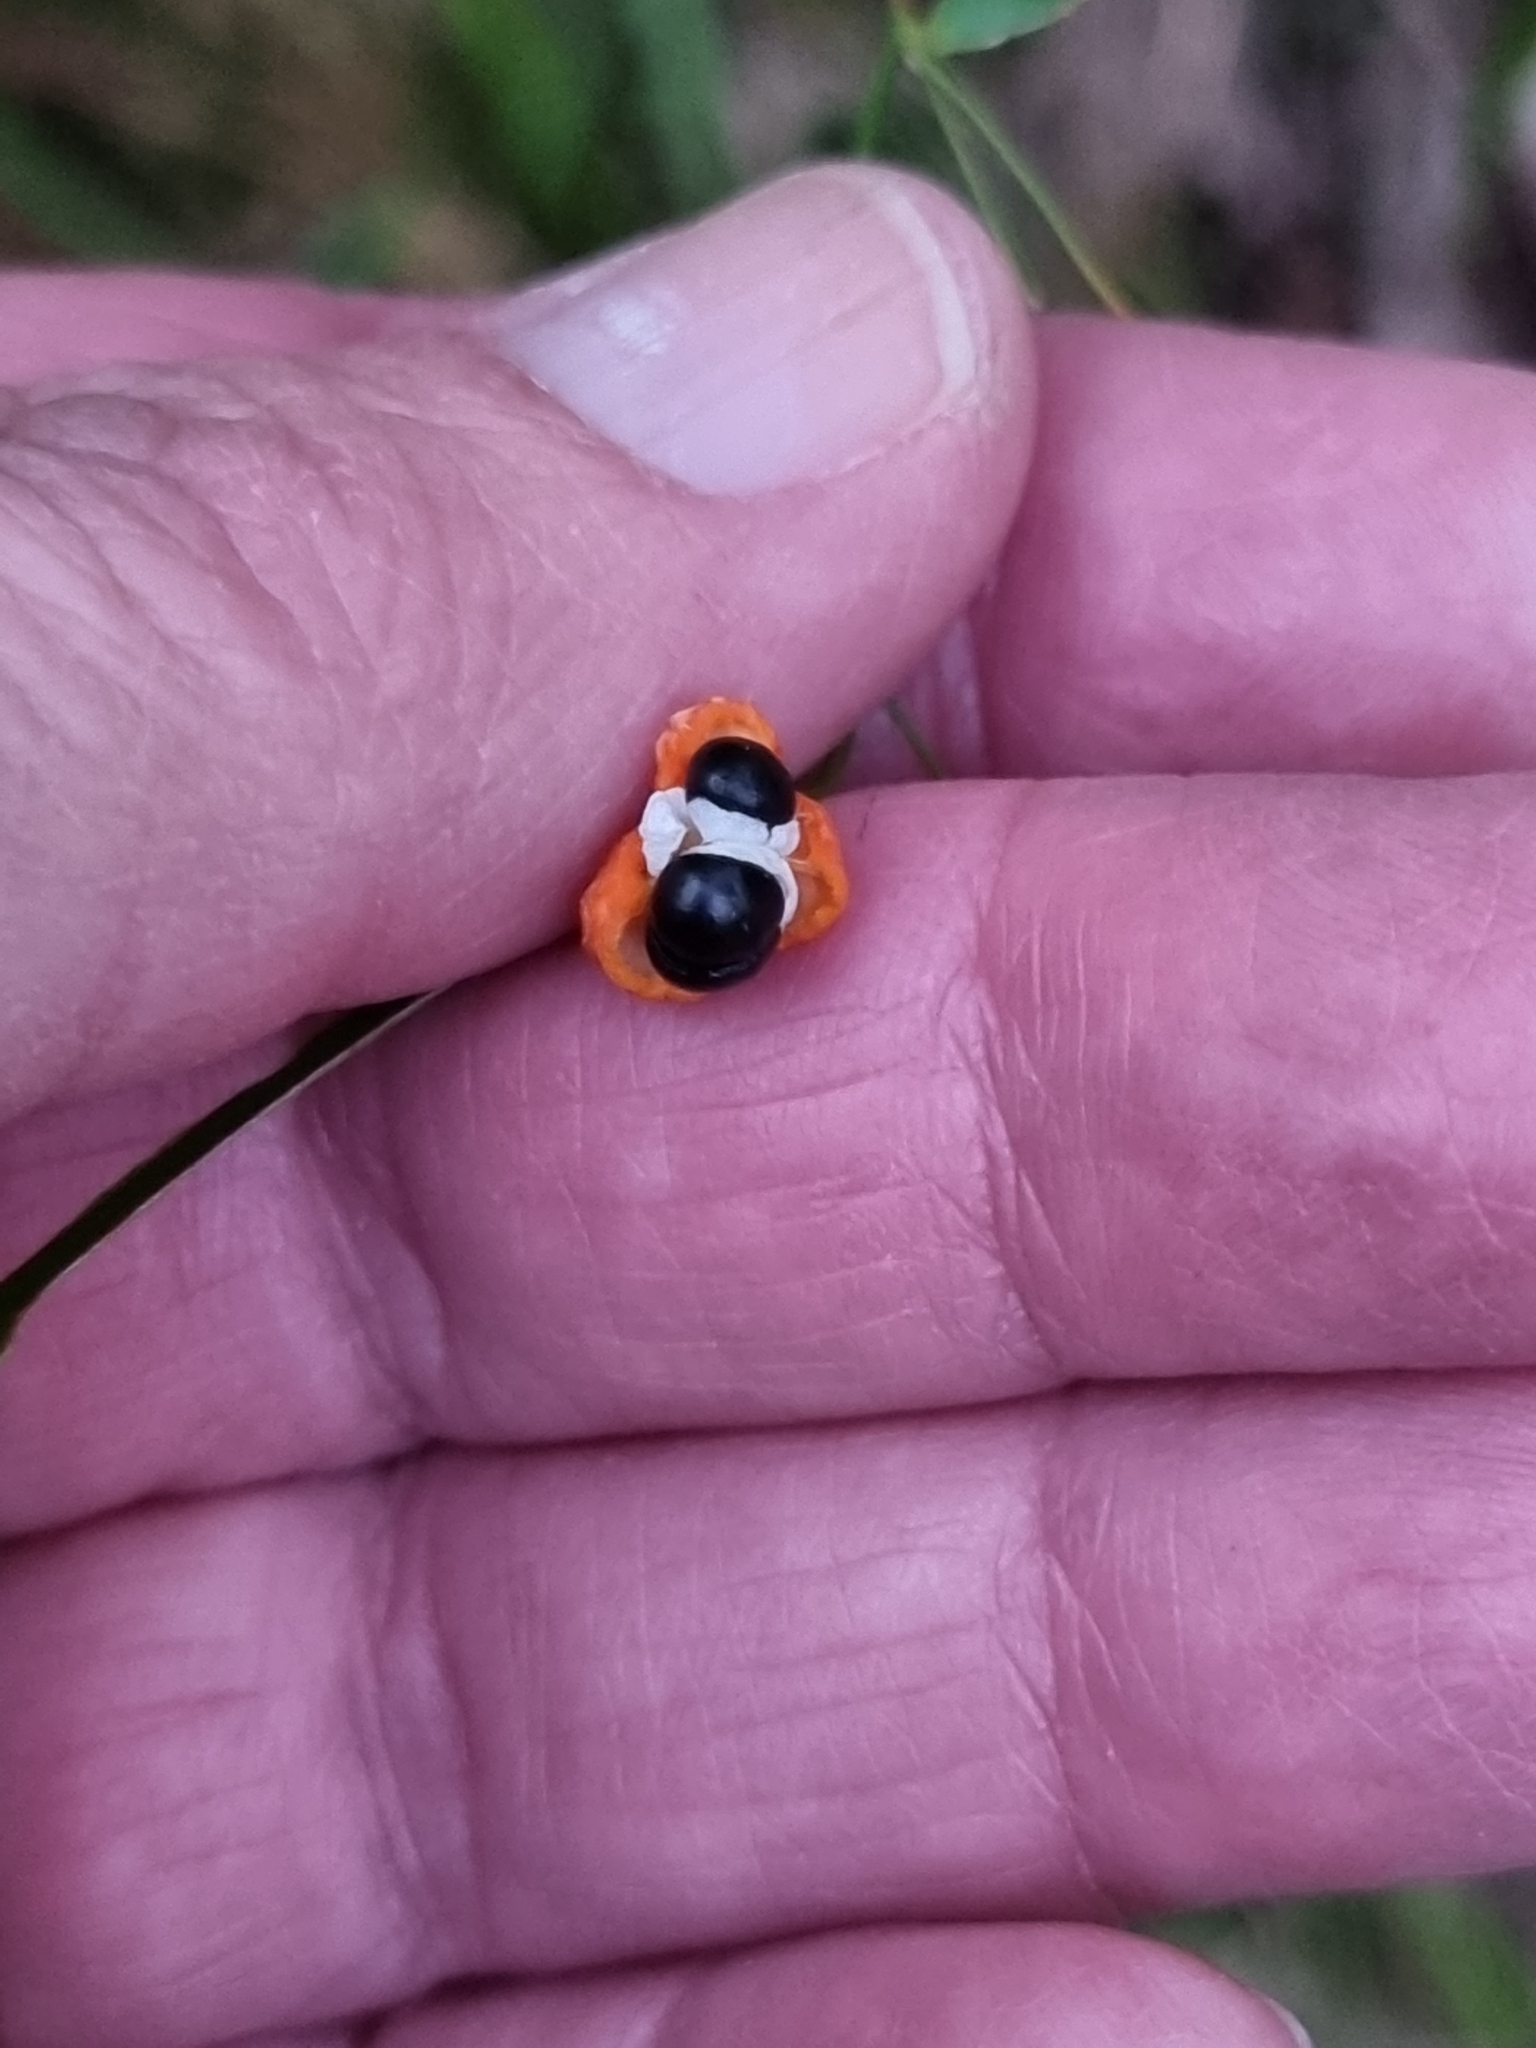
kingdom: Plantae
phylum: Tracheophyta
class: Liliopsida
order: Asparagales
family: Asparagaceae
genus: Eustrephus
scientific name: Eustrephus latifolius
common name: Orangevine
